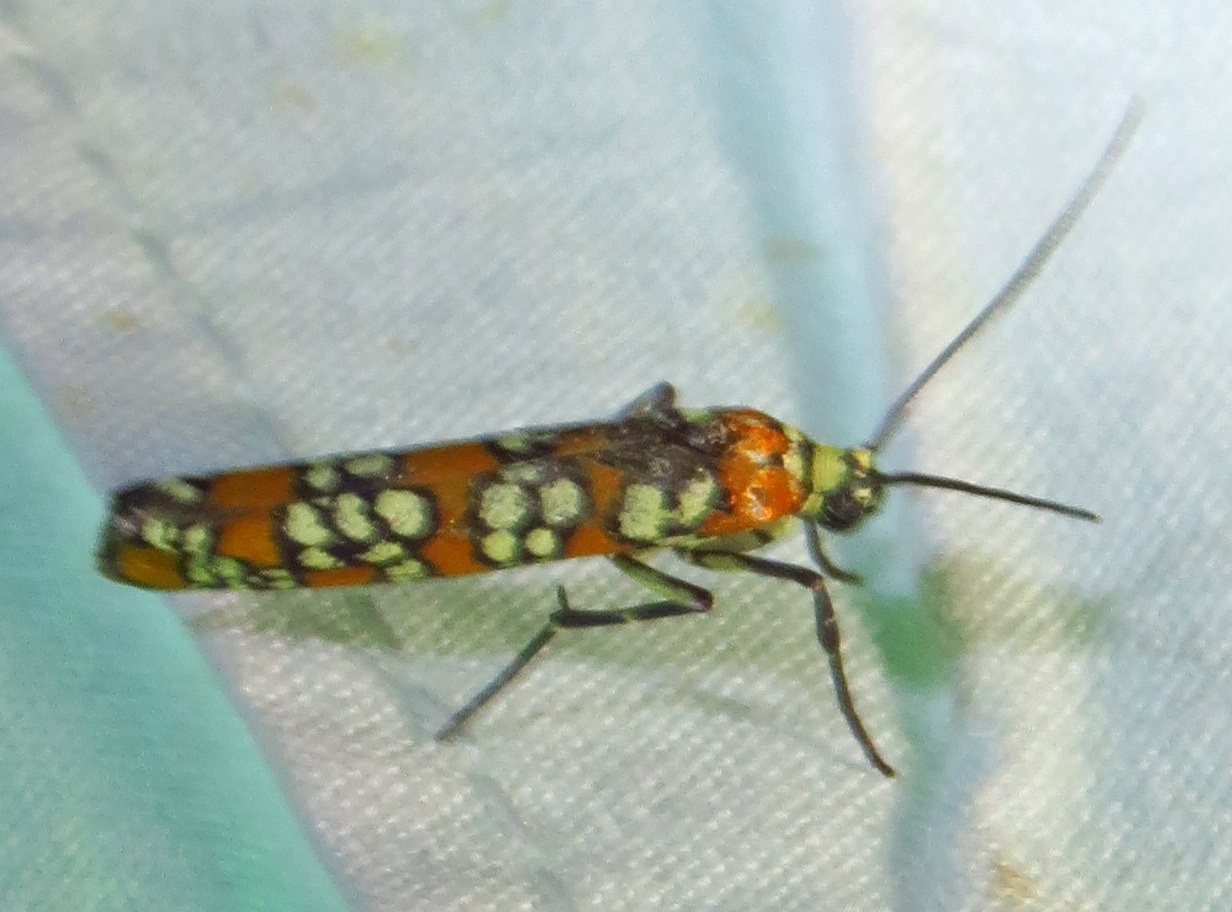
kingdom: Animalia
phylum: Arthropoda
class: Insecta
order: Lepidoptera
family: Attevidae
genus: Atteva
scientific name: Atteva punctella
